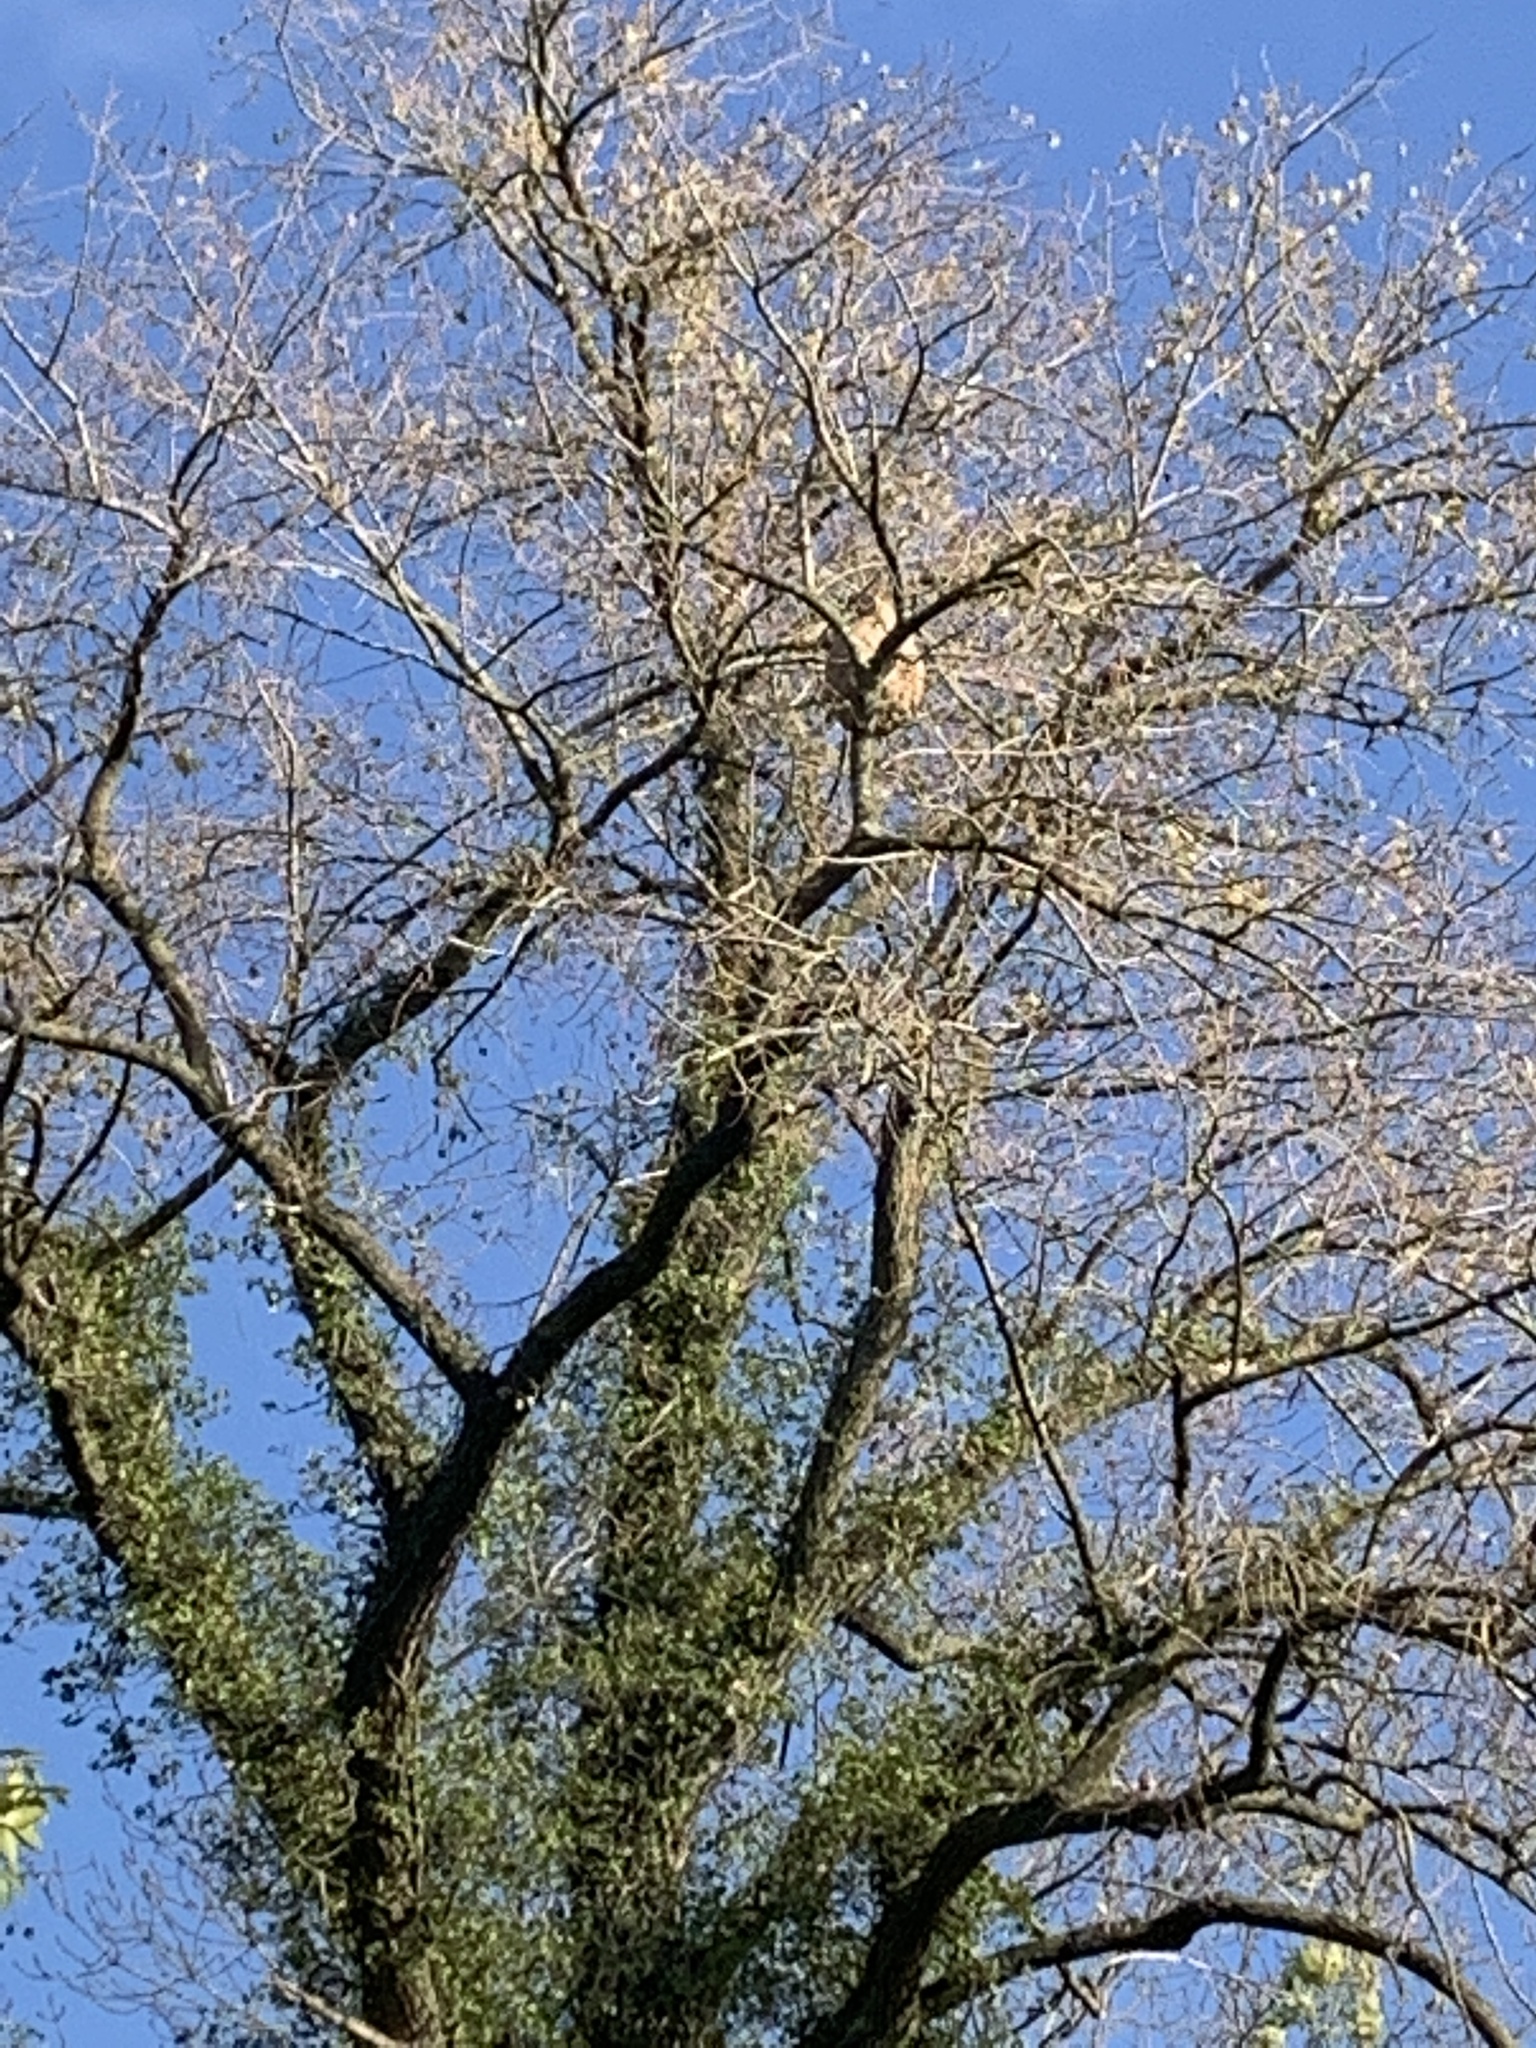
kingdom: Animalia
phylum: Arthropoda
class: Insecta
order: Hymenoptera
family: Vespidae
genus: Vespa
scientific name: Vespa velutina
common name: Asian hornet
